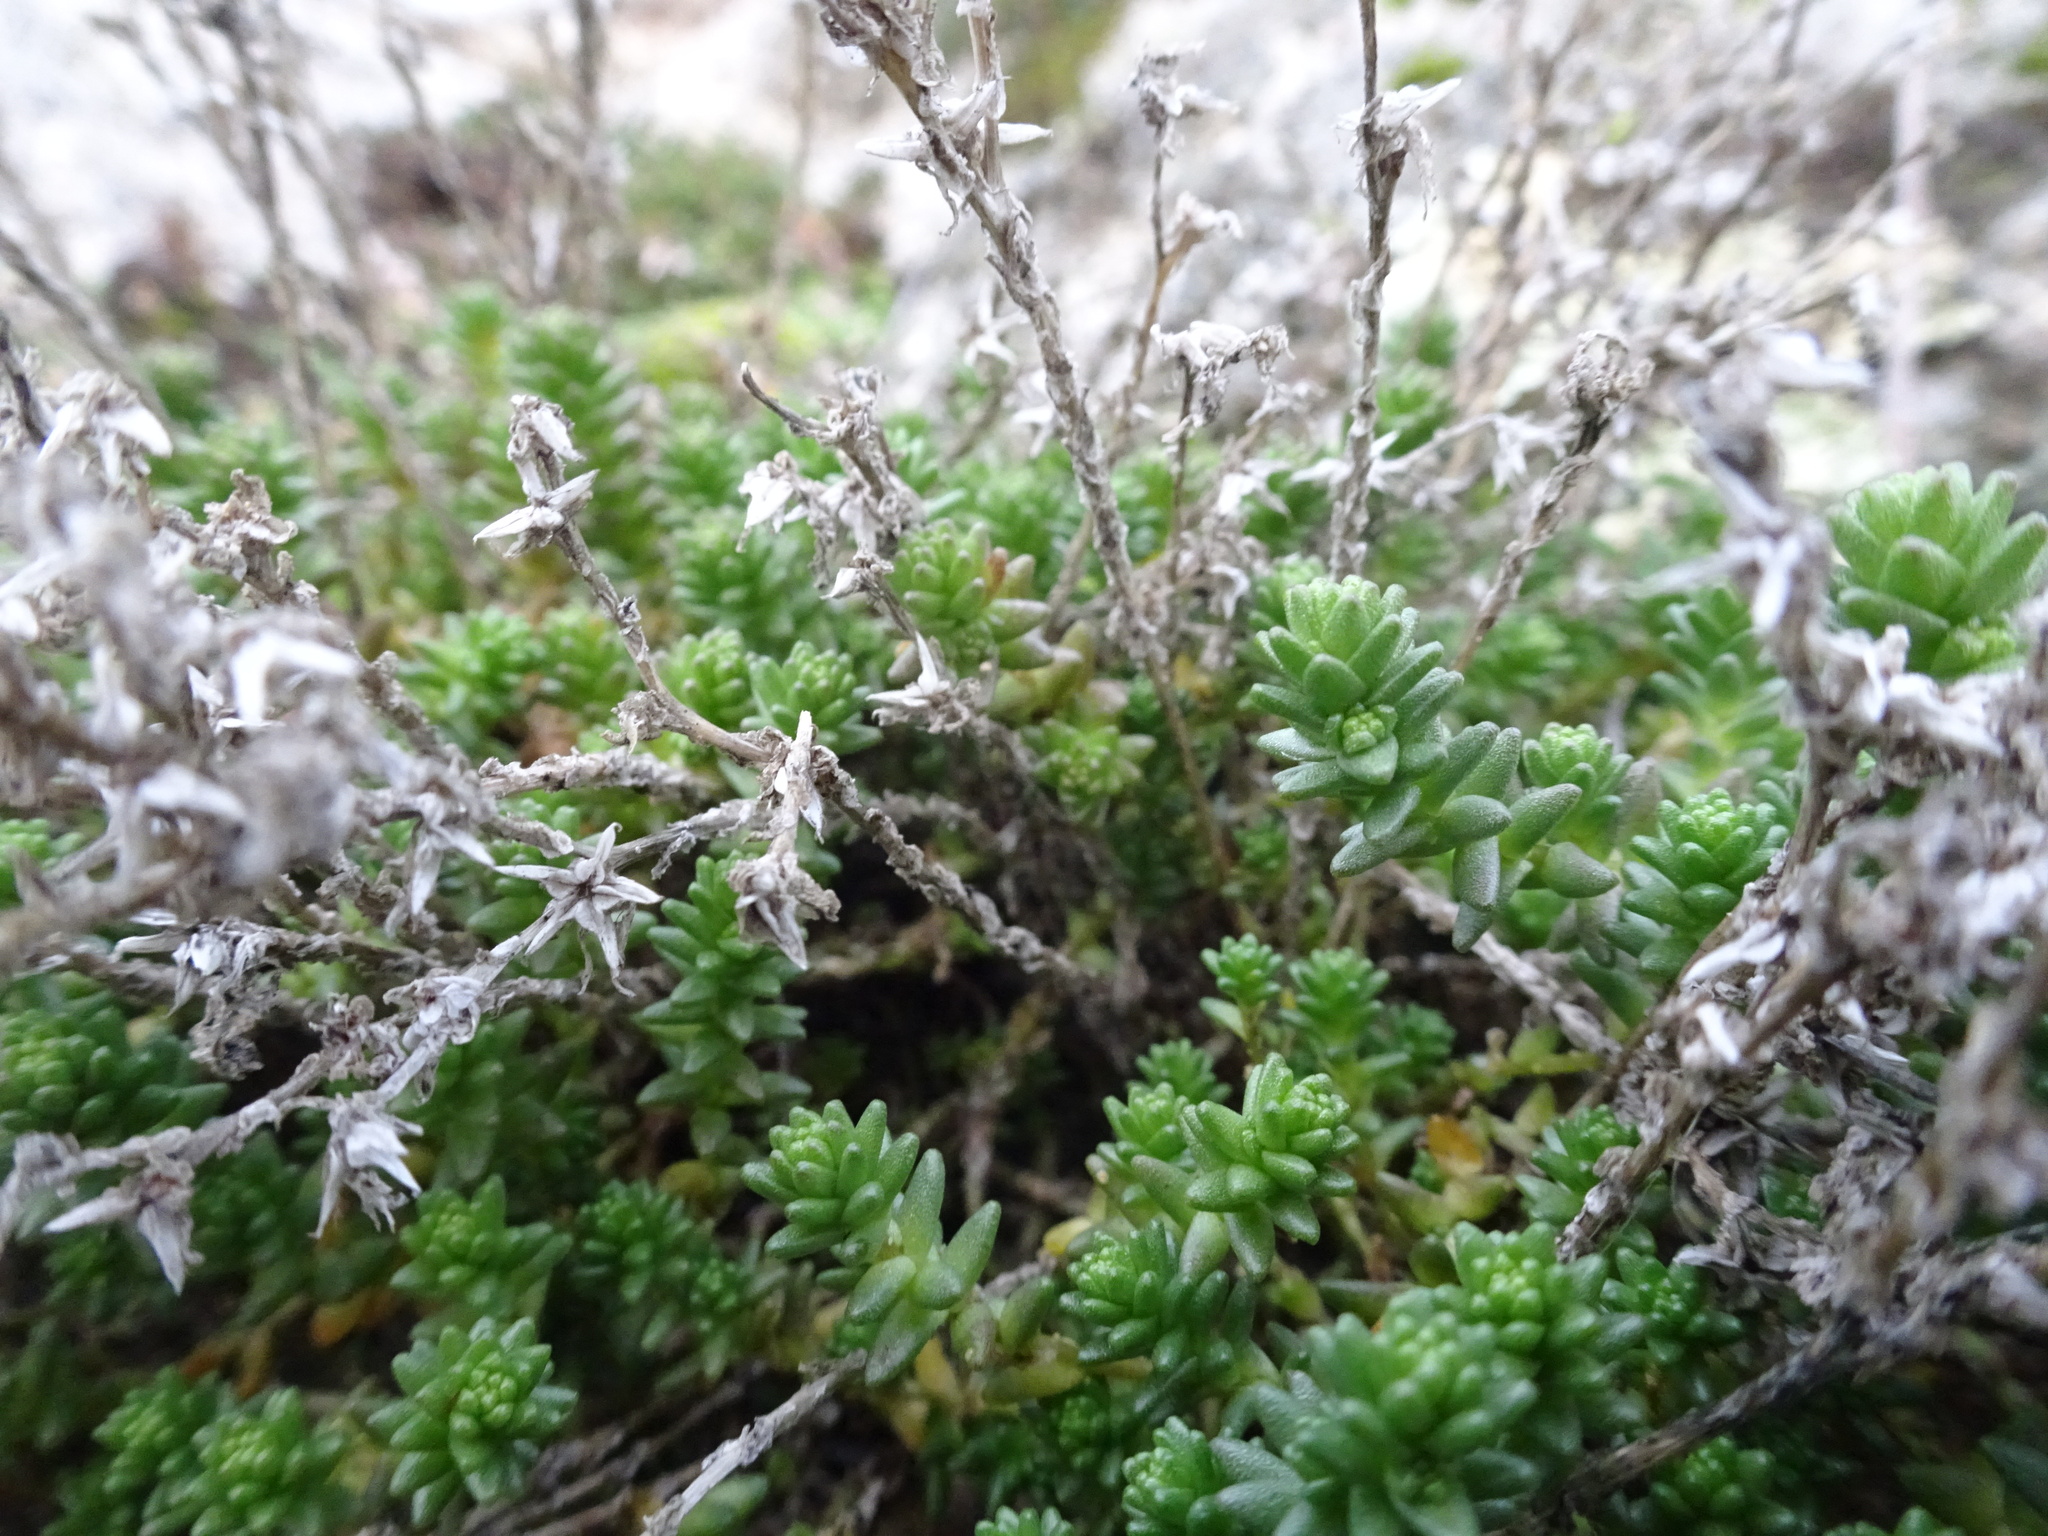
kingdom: Plantae
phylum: Tracheophyta
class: Magnoliopsida
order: Saxifragales
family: Crassulaceae
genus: Sedum
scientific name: Sedum acre
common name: Biting stonecrop
